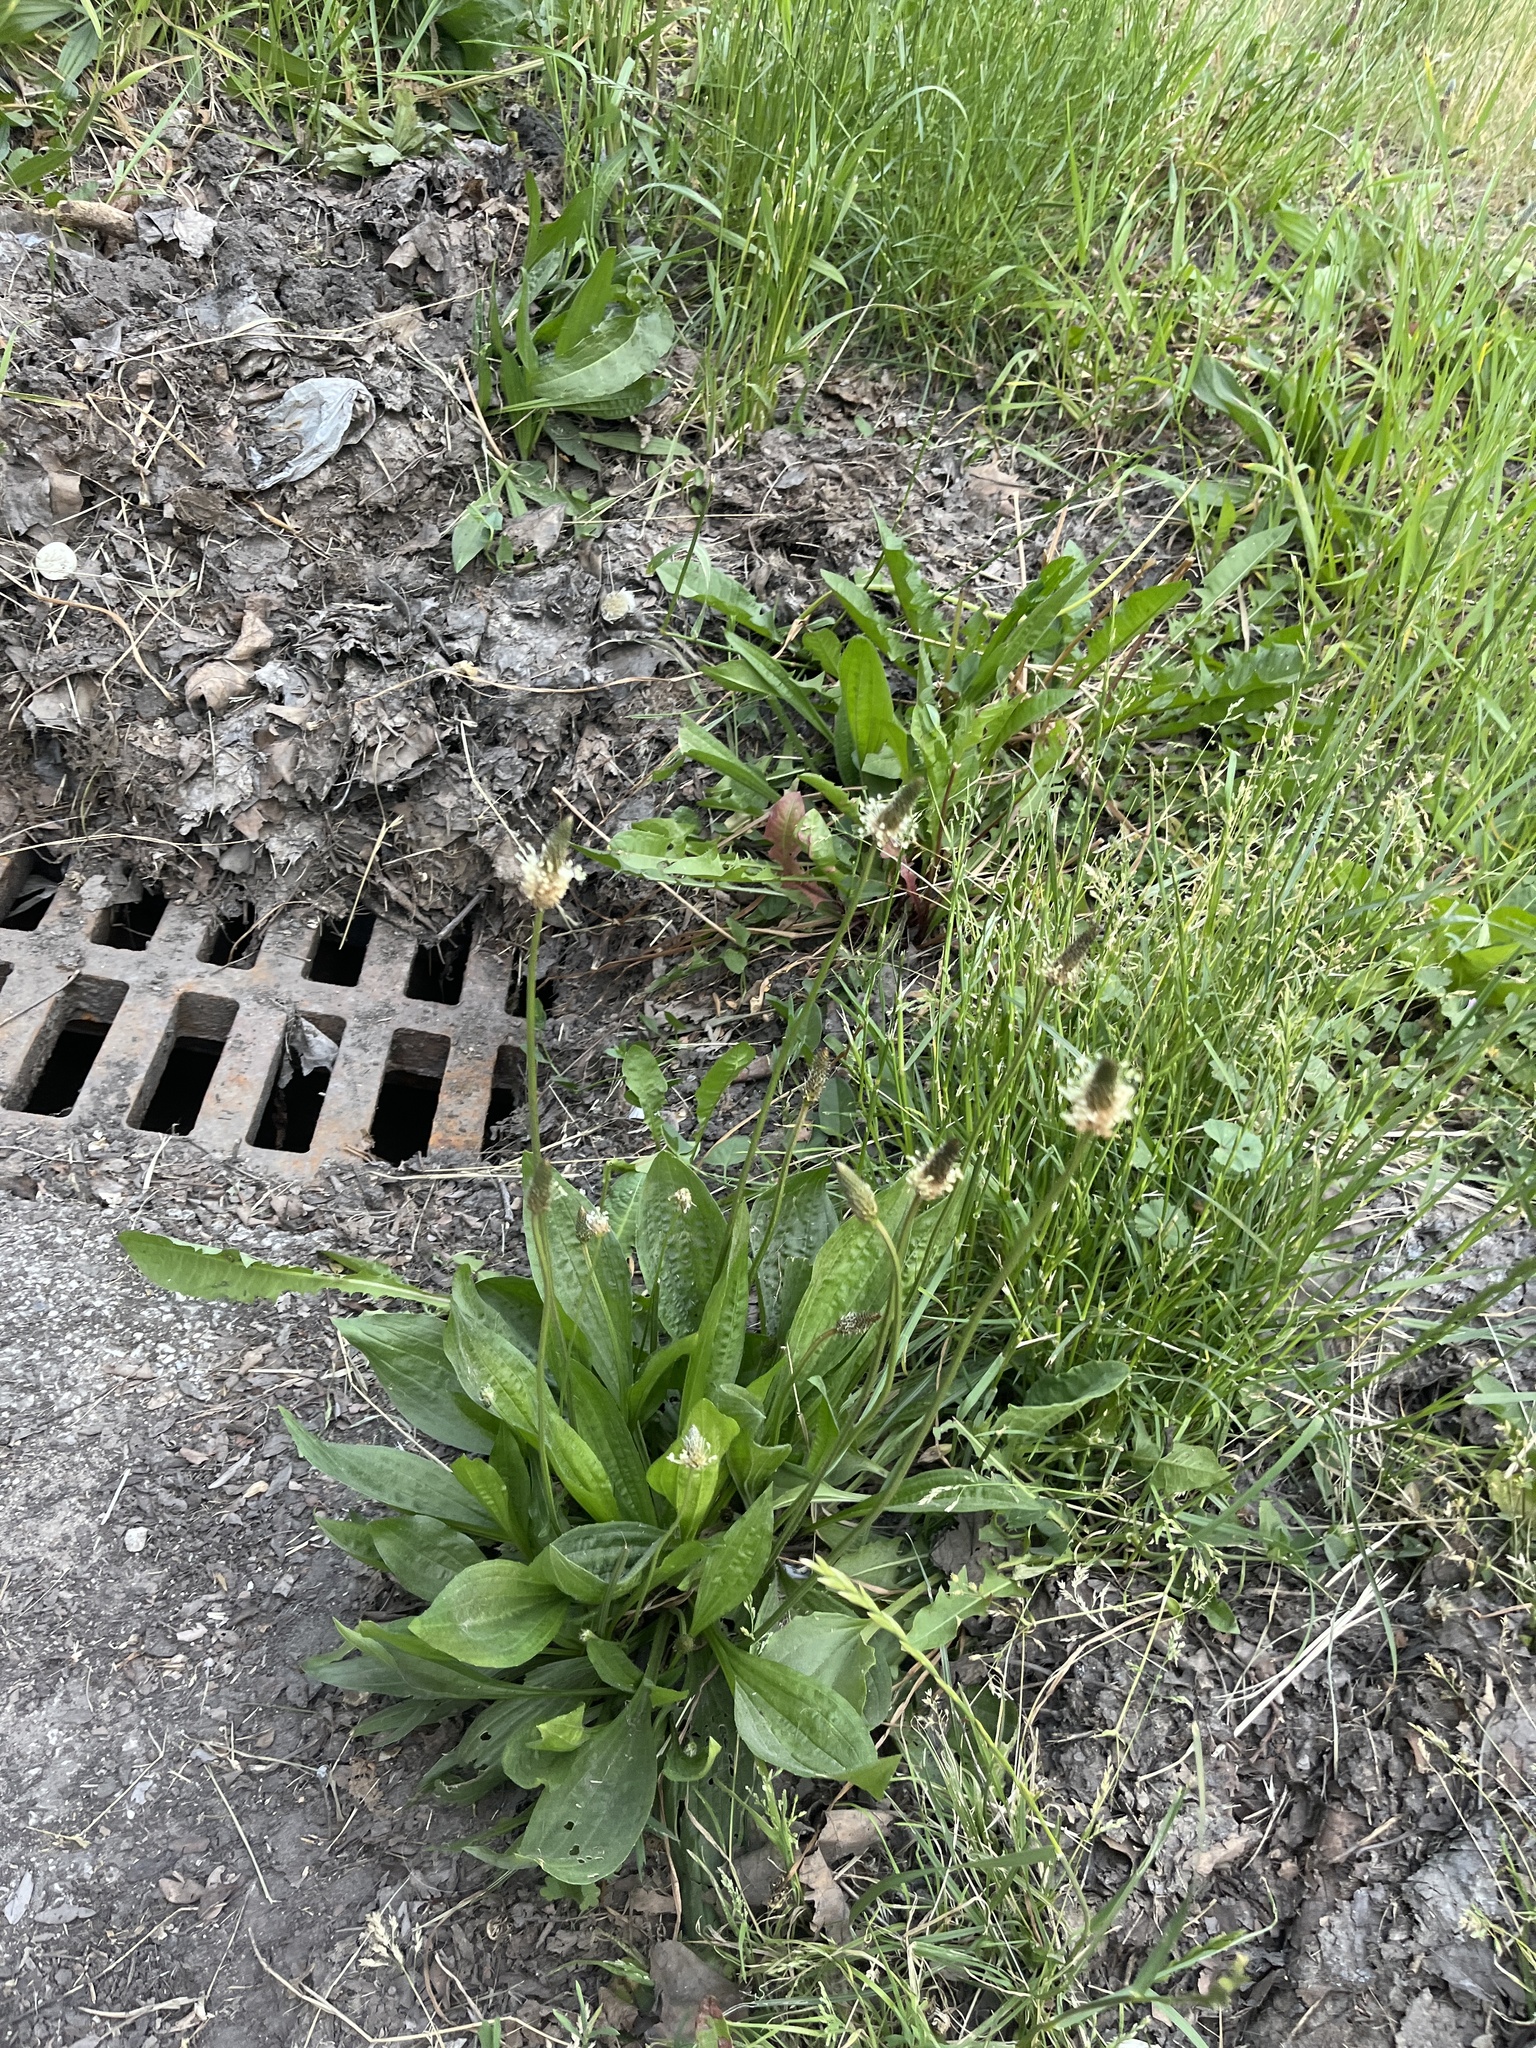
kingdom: Plantae
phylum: Tracheophyta
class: Magnoliopsida
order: Lamiales
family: Plantaginaceae
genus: Plantago
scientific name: Plantago lanceolata
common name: Ribwort plantain
